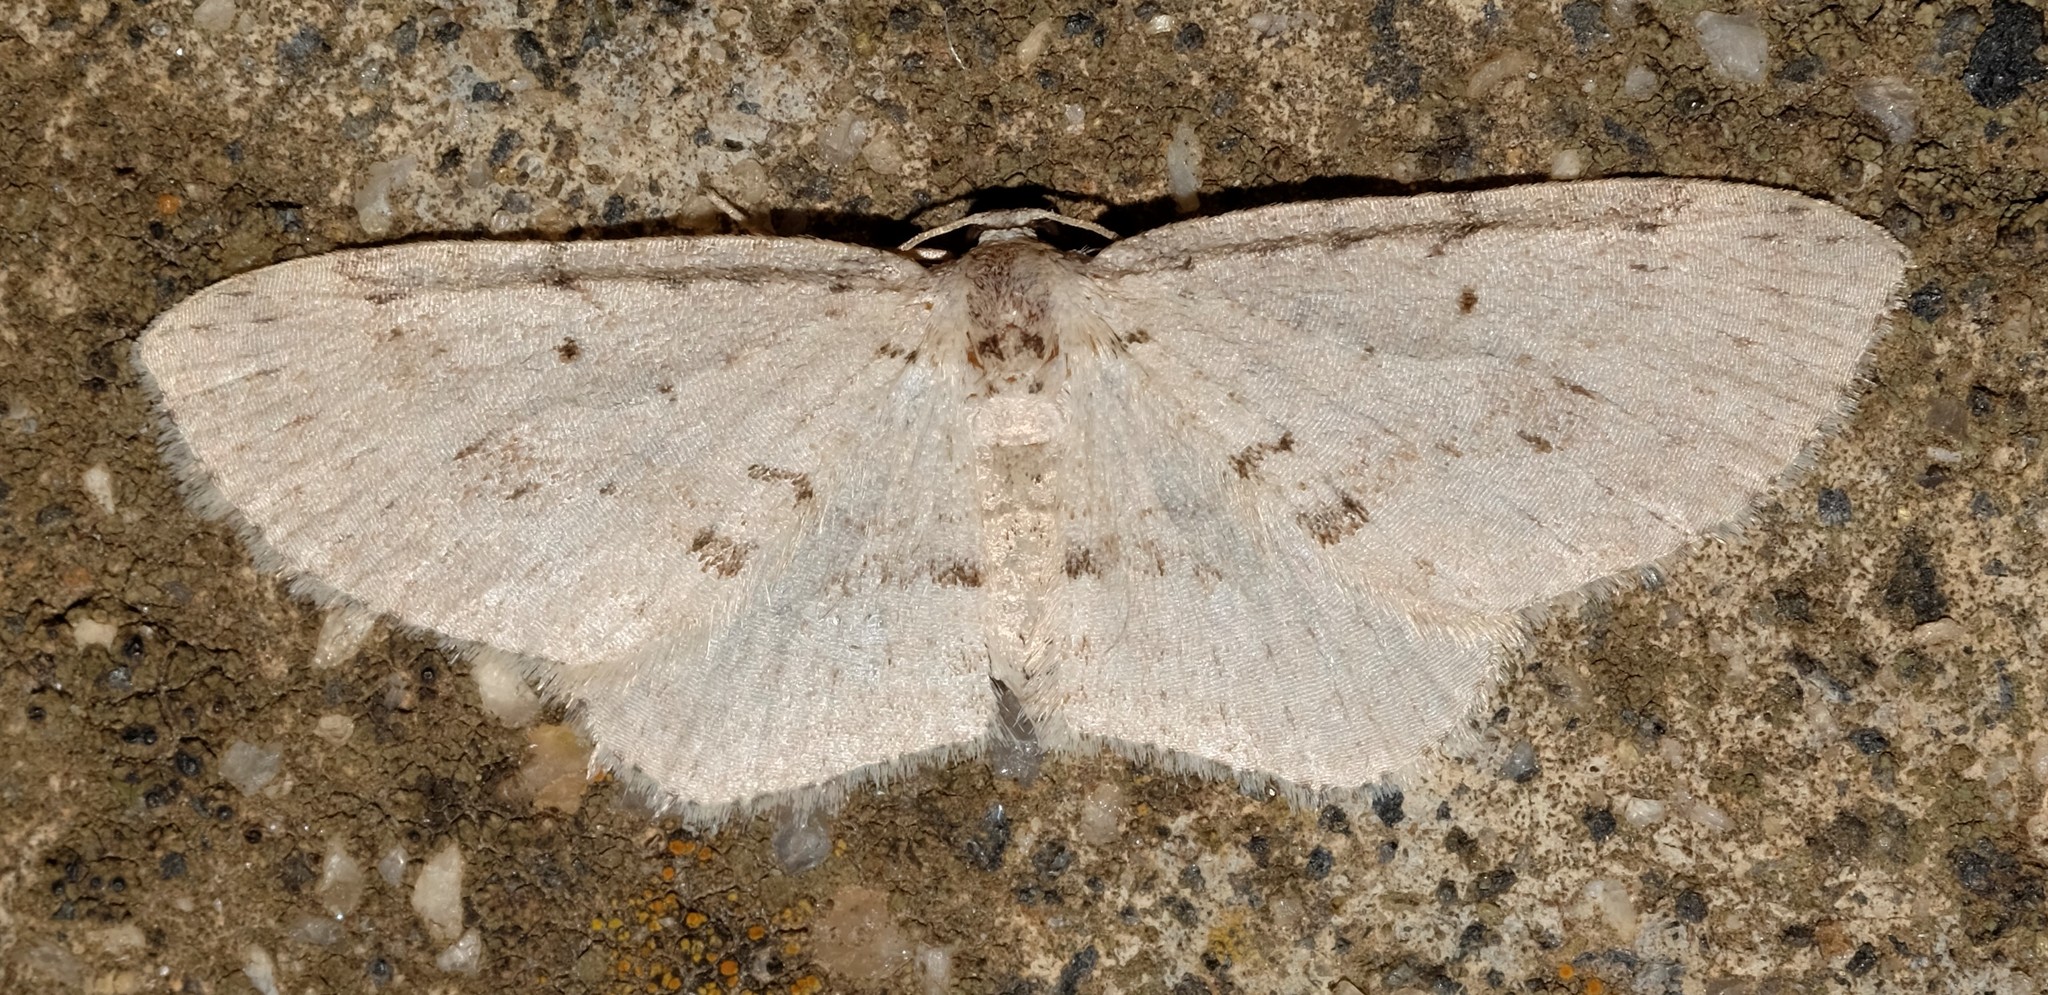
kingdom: Animalia
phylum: Arthropoda
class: Insecta
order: Lepidoptera
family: Geometridae
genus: Poecilasthena
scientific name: Poecilasthena scoliota
